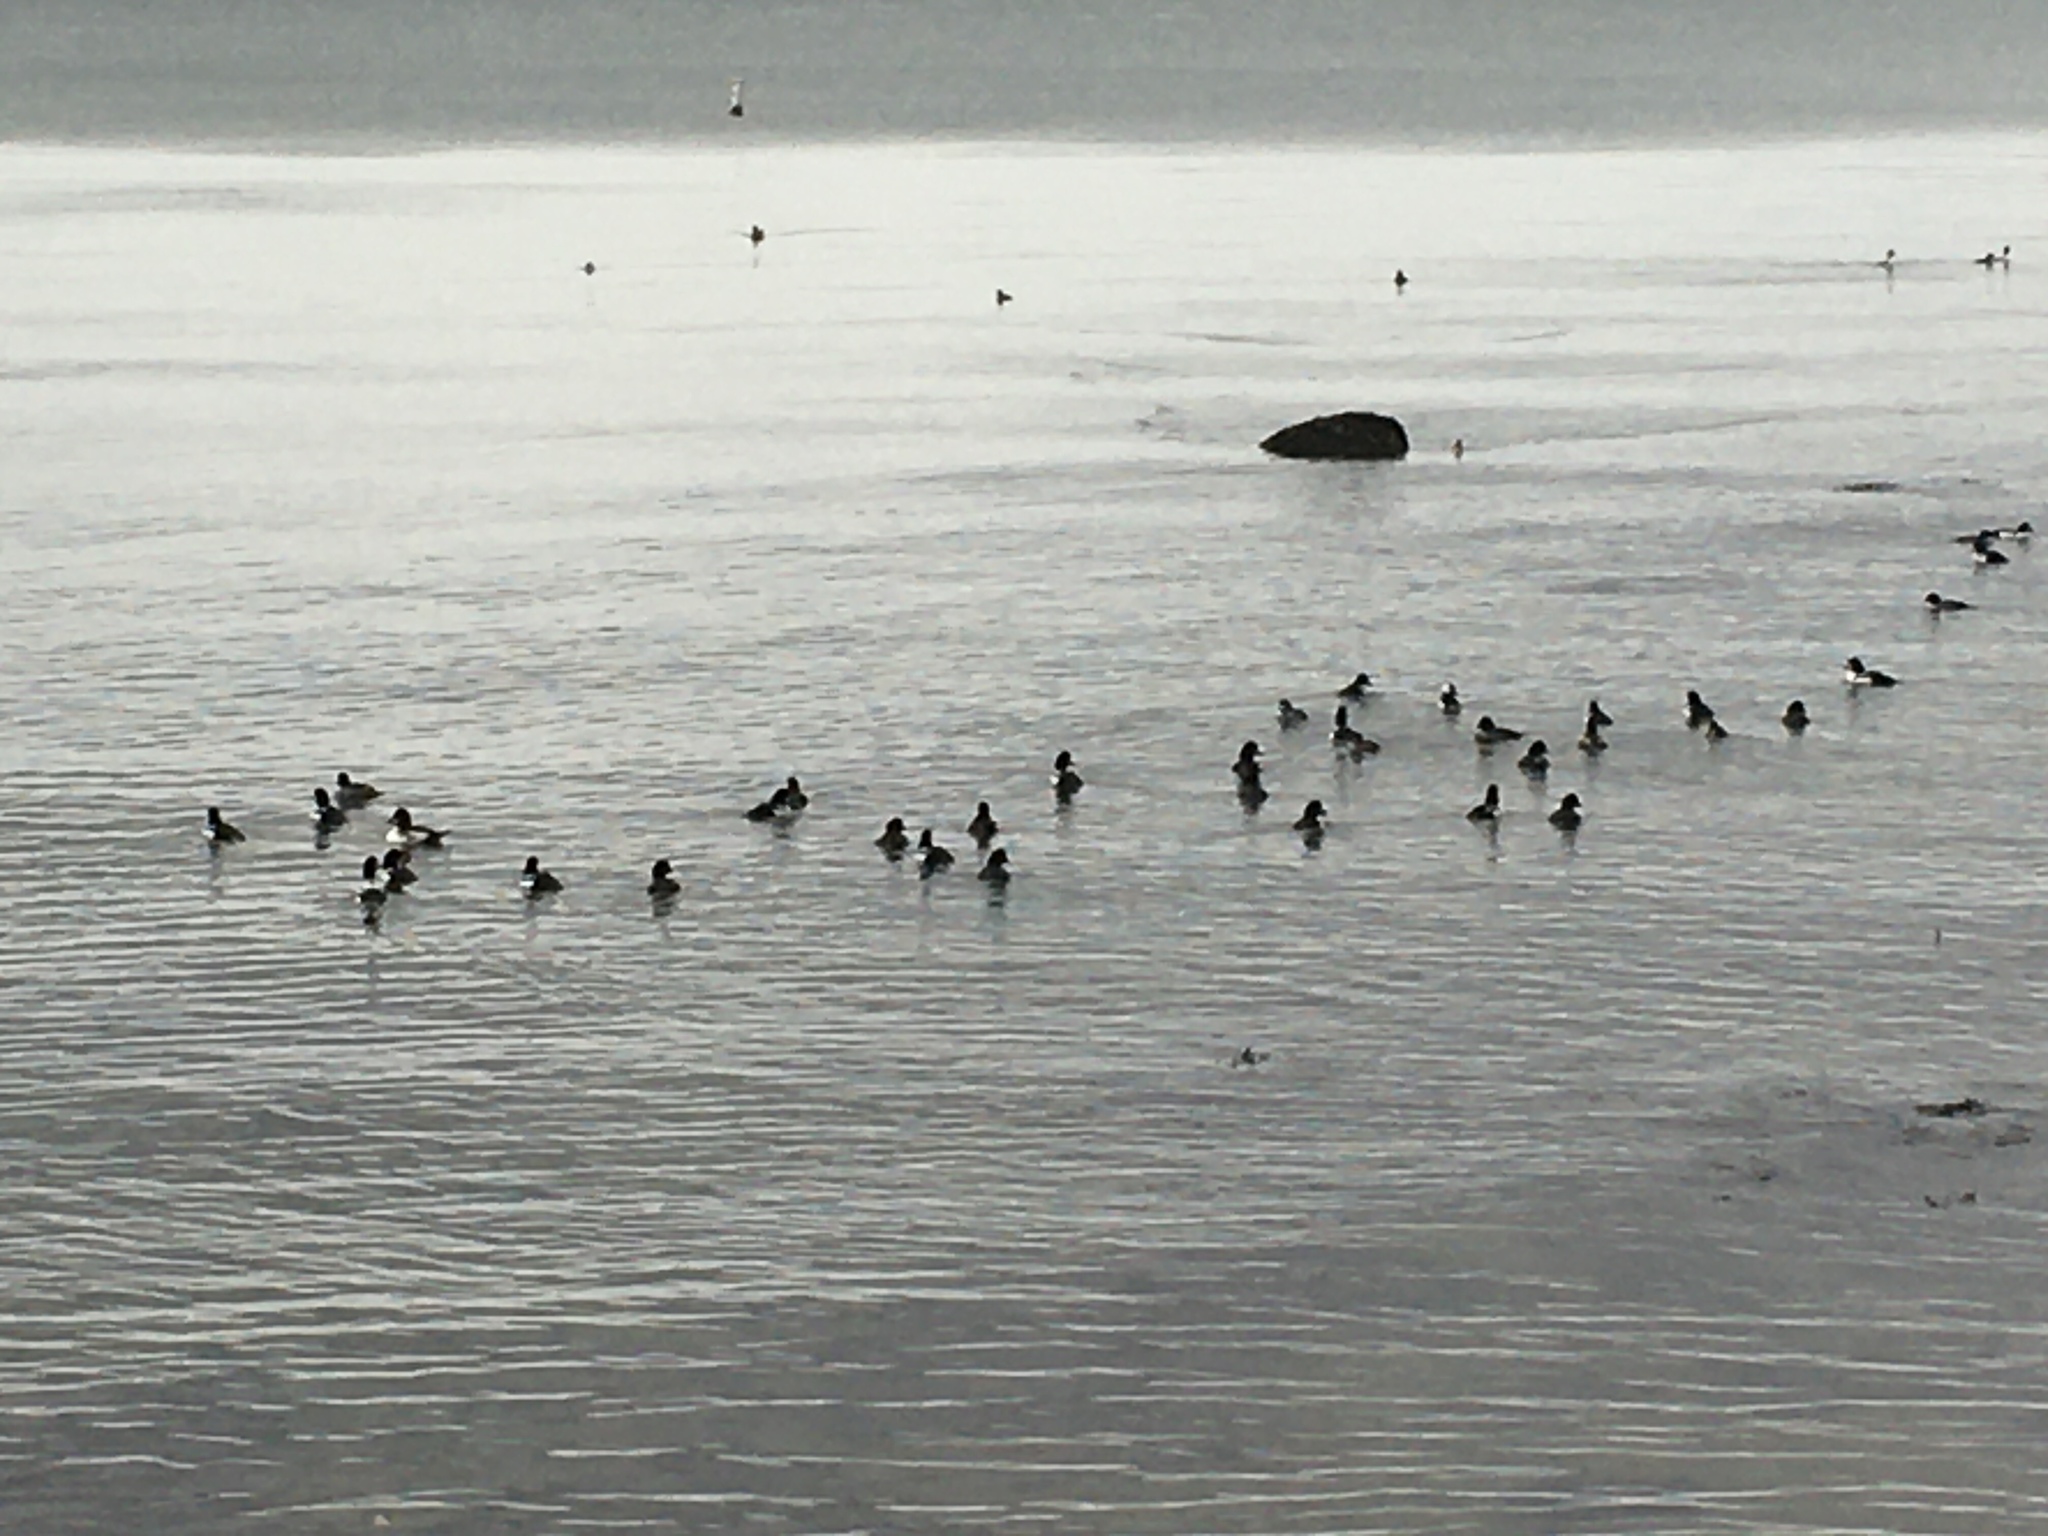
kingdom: Animalia
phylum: Chordata
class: Aves
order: Anseriformes
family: Anatidae
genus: Bucephala
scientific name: Bucephala albeola
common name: Bufflehead
